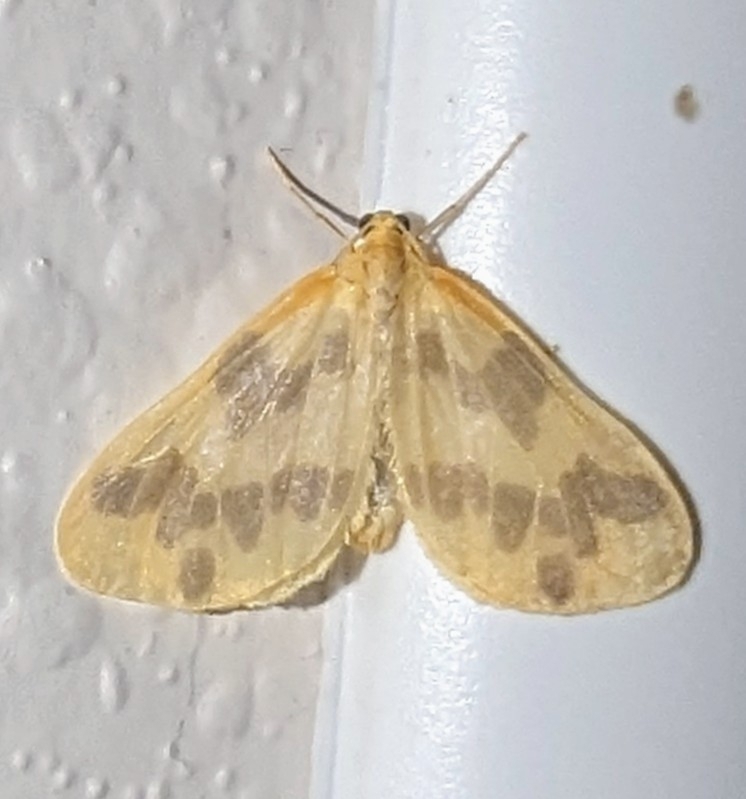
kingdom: Animalia
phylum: Arthropoda
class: Insecta
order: Lepidoptera
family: Geometridae
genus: Eubaphe
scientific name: Eubaphe mendica
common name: Beggar
